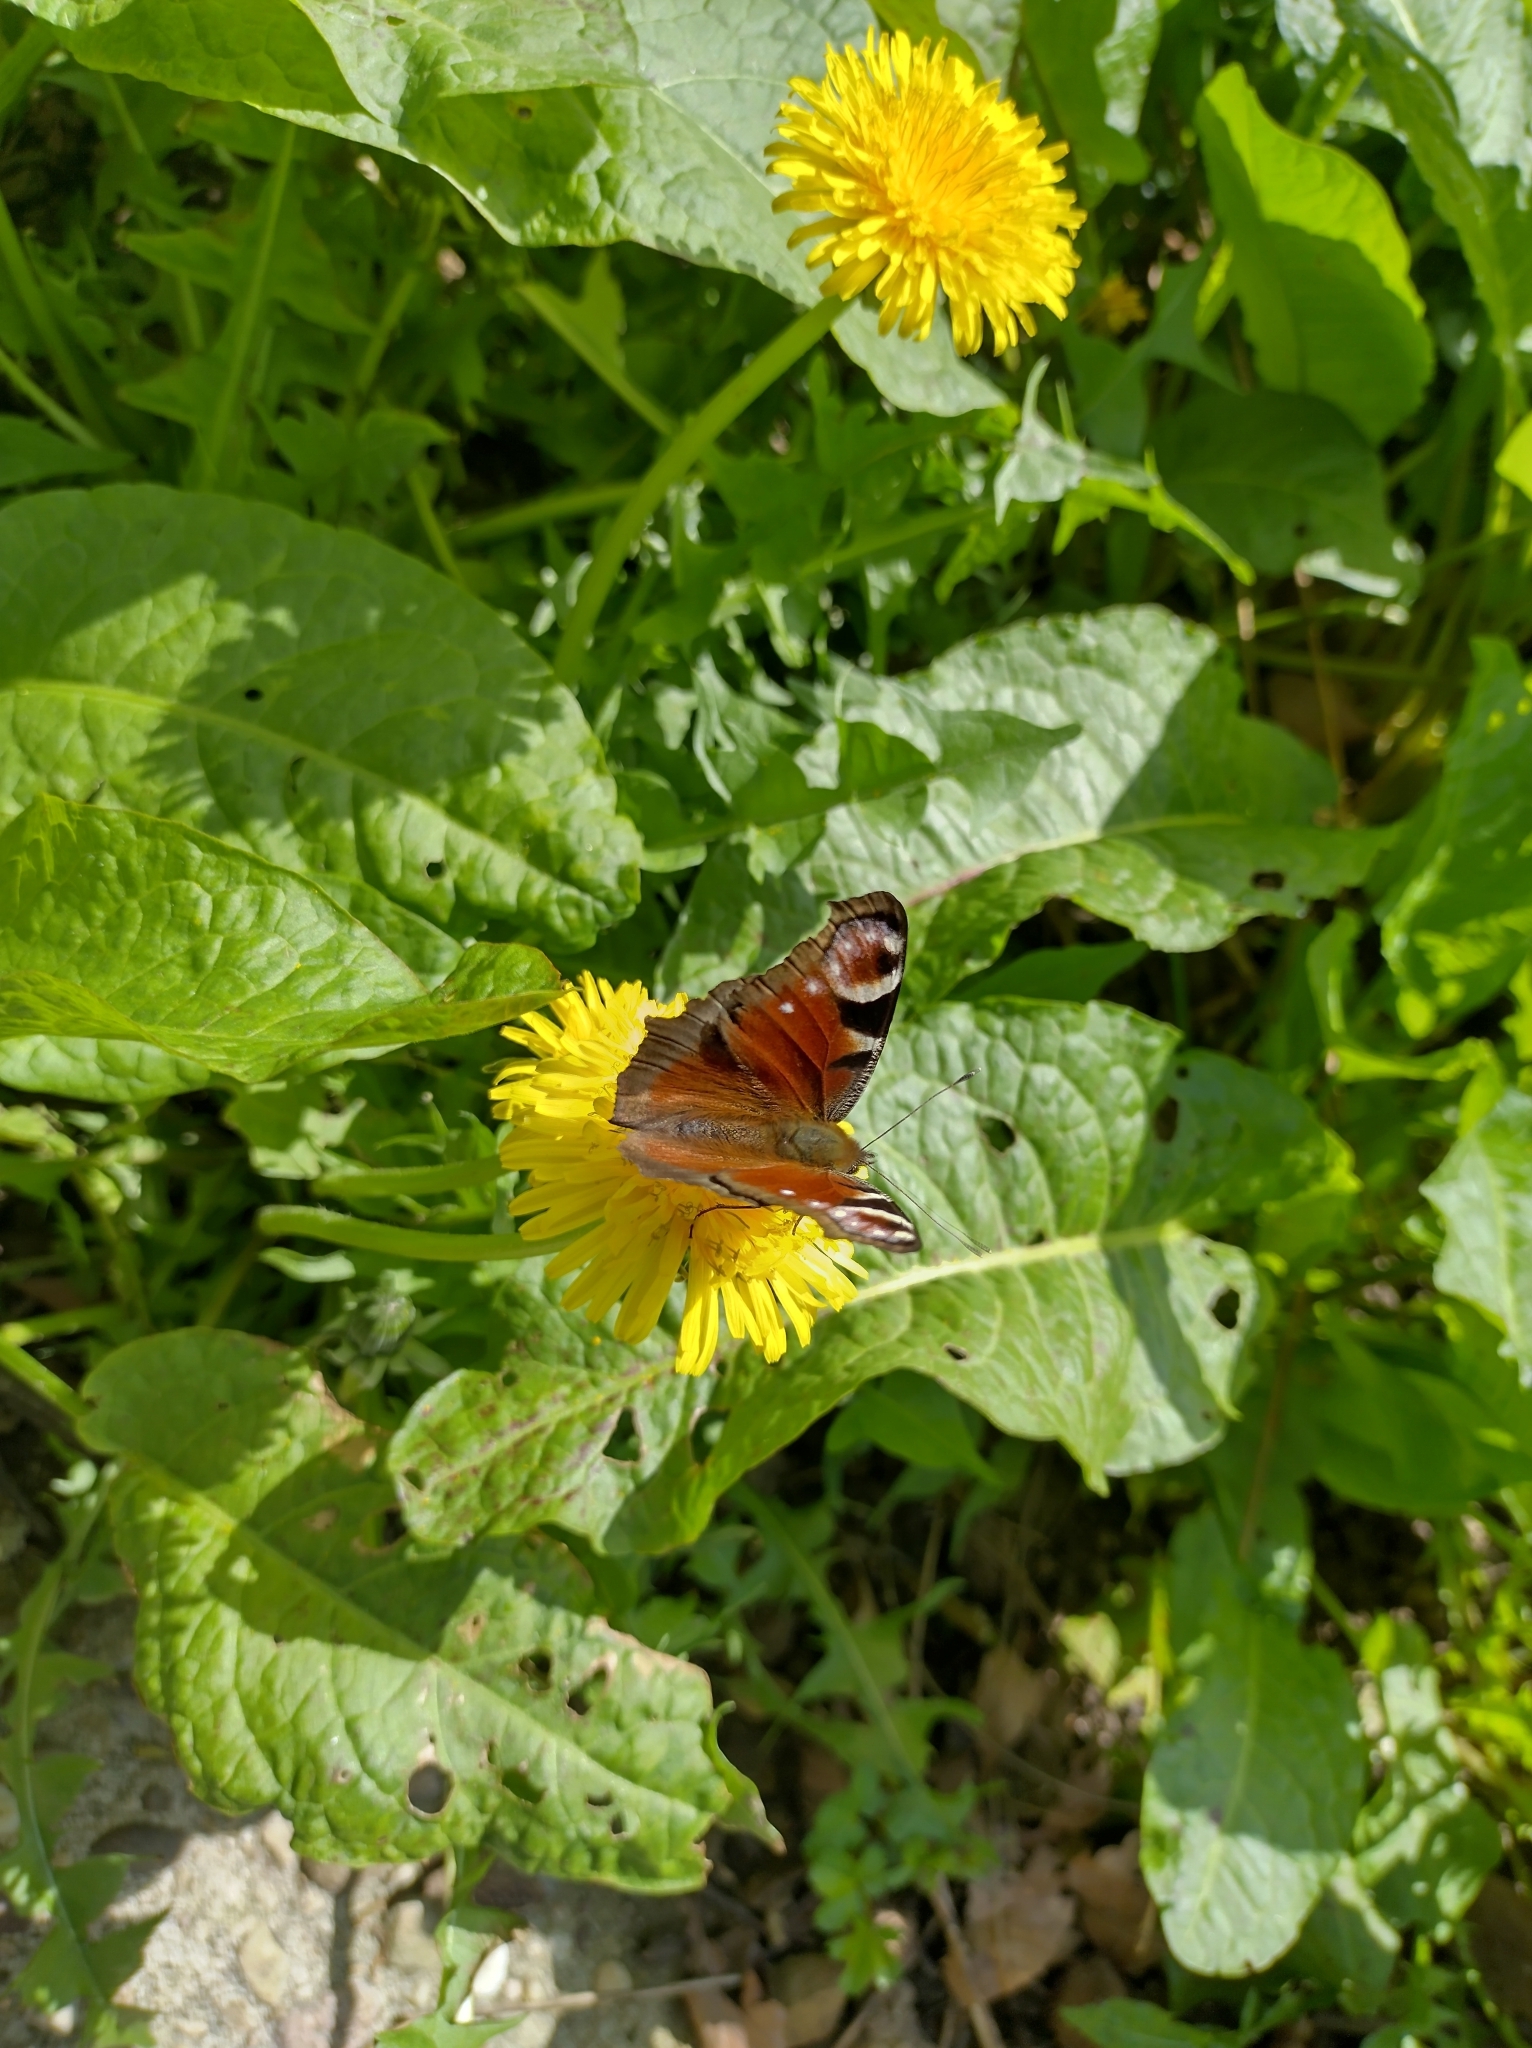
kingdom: Animalia
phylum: Arthropoda
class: Insecta
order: Lepidoptera
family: Nymphalidae
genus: Aglais
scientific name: Aglais io
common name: Peacock
